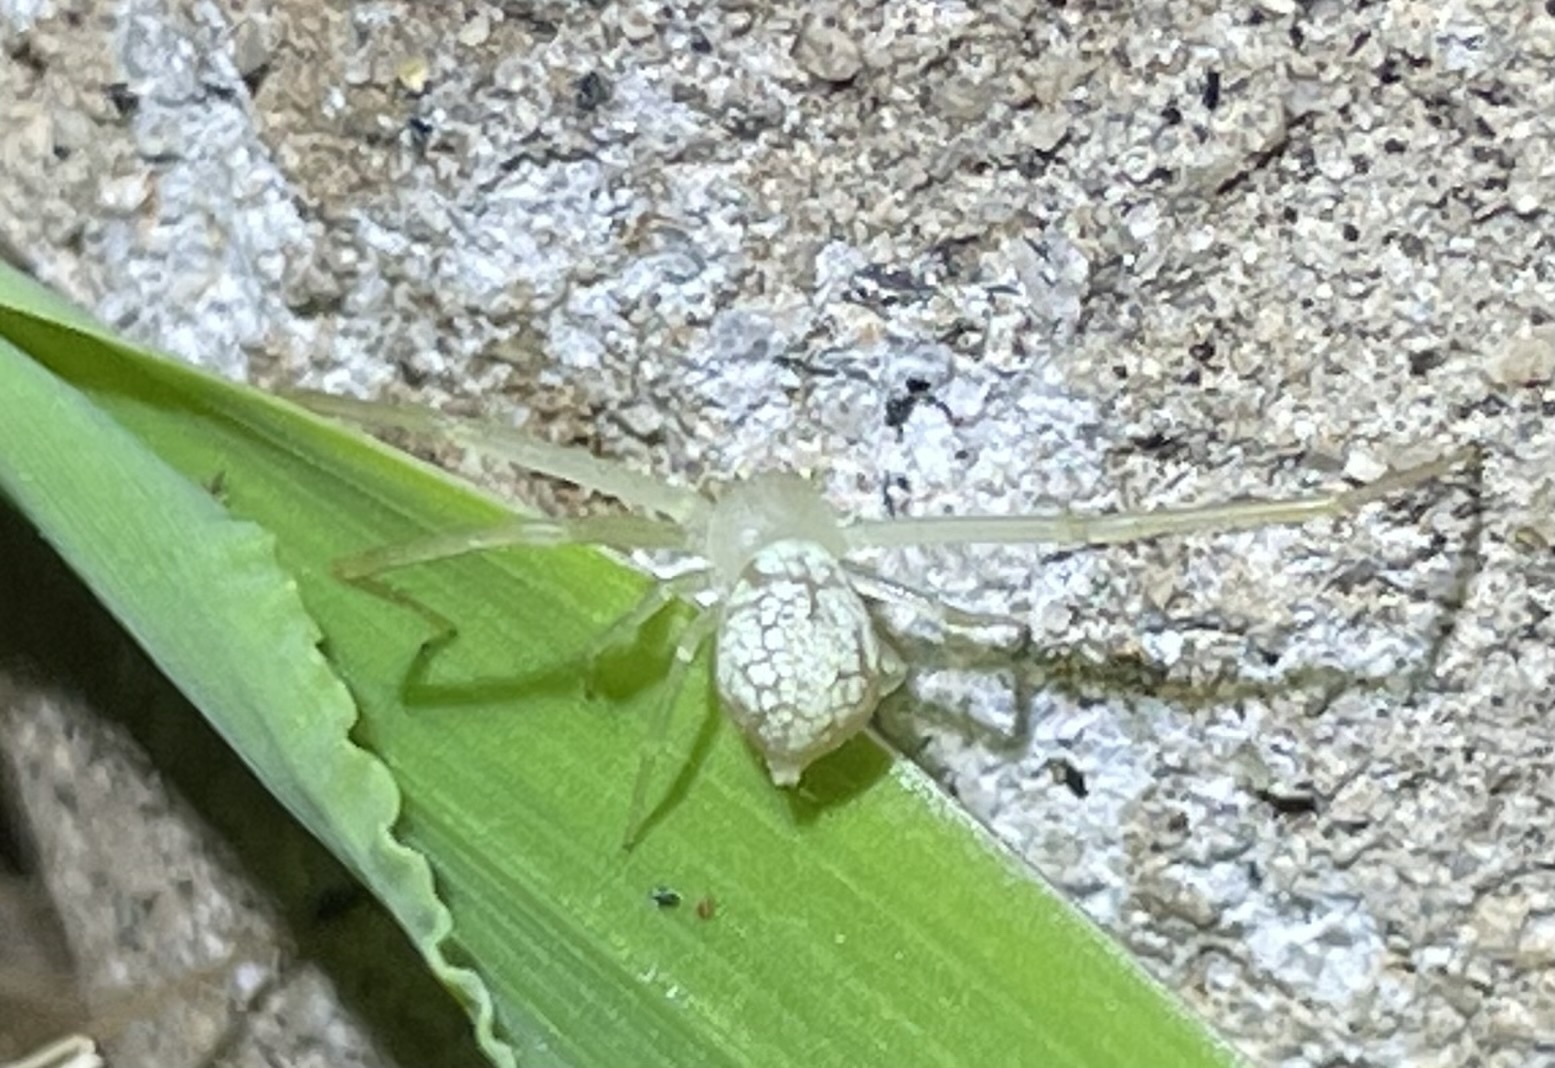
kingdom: Animalia
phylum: Arthropoda
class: Arachnida
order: Araneae
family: Thomisidae
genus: Misumessus
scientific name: Misumessus oblongus
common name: American green crab spider
